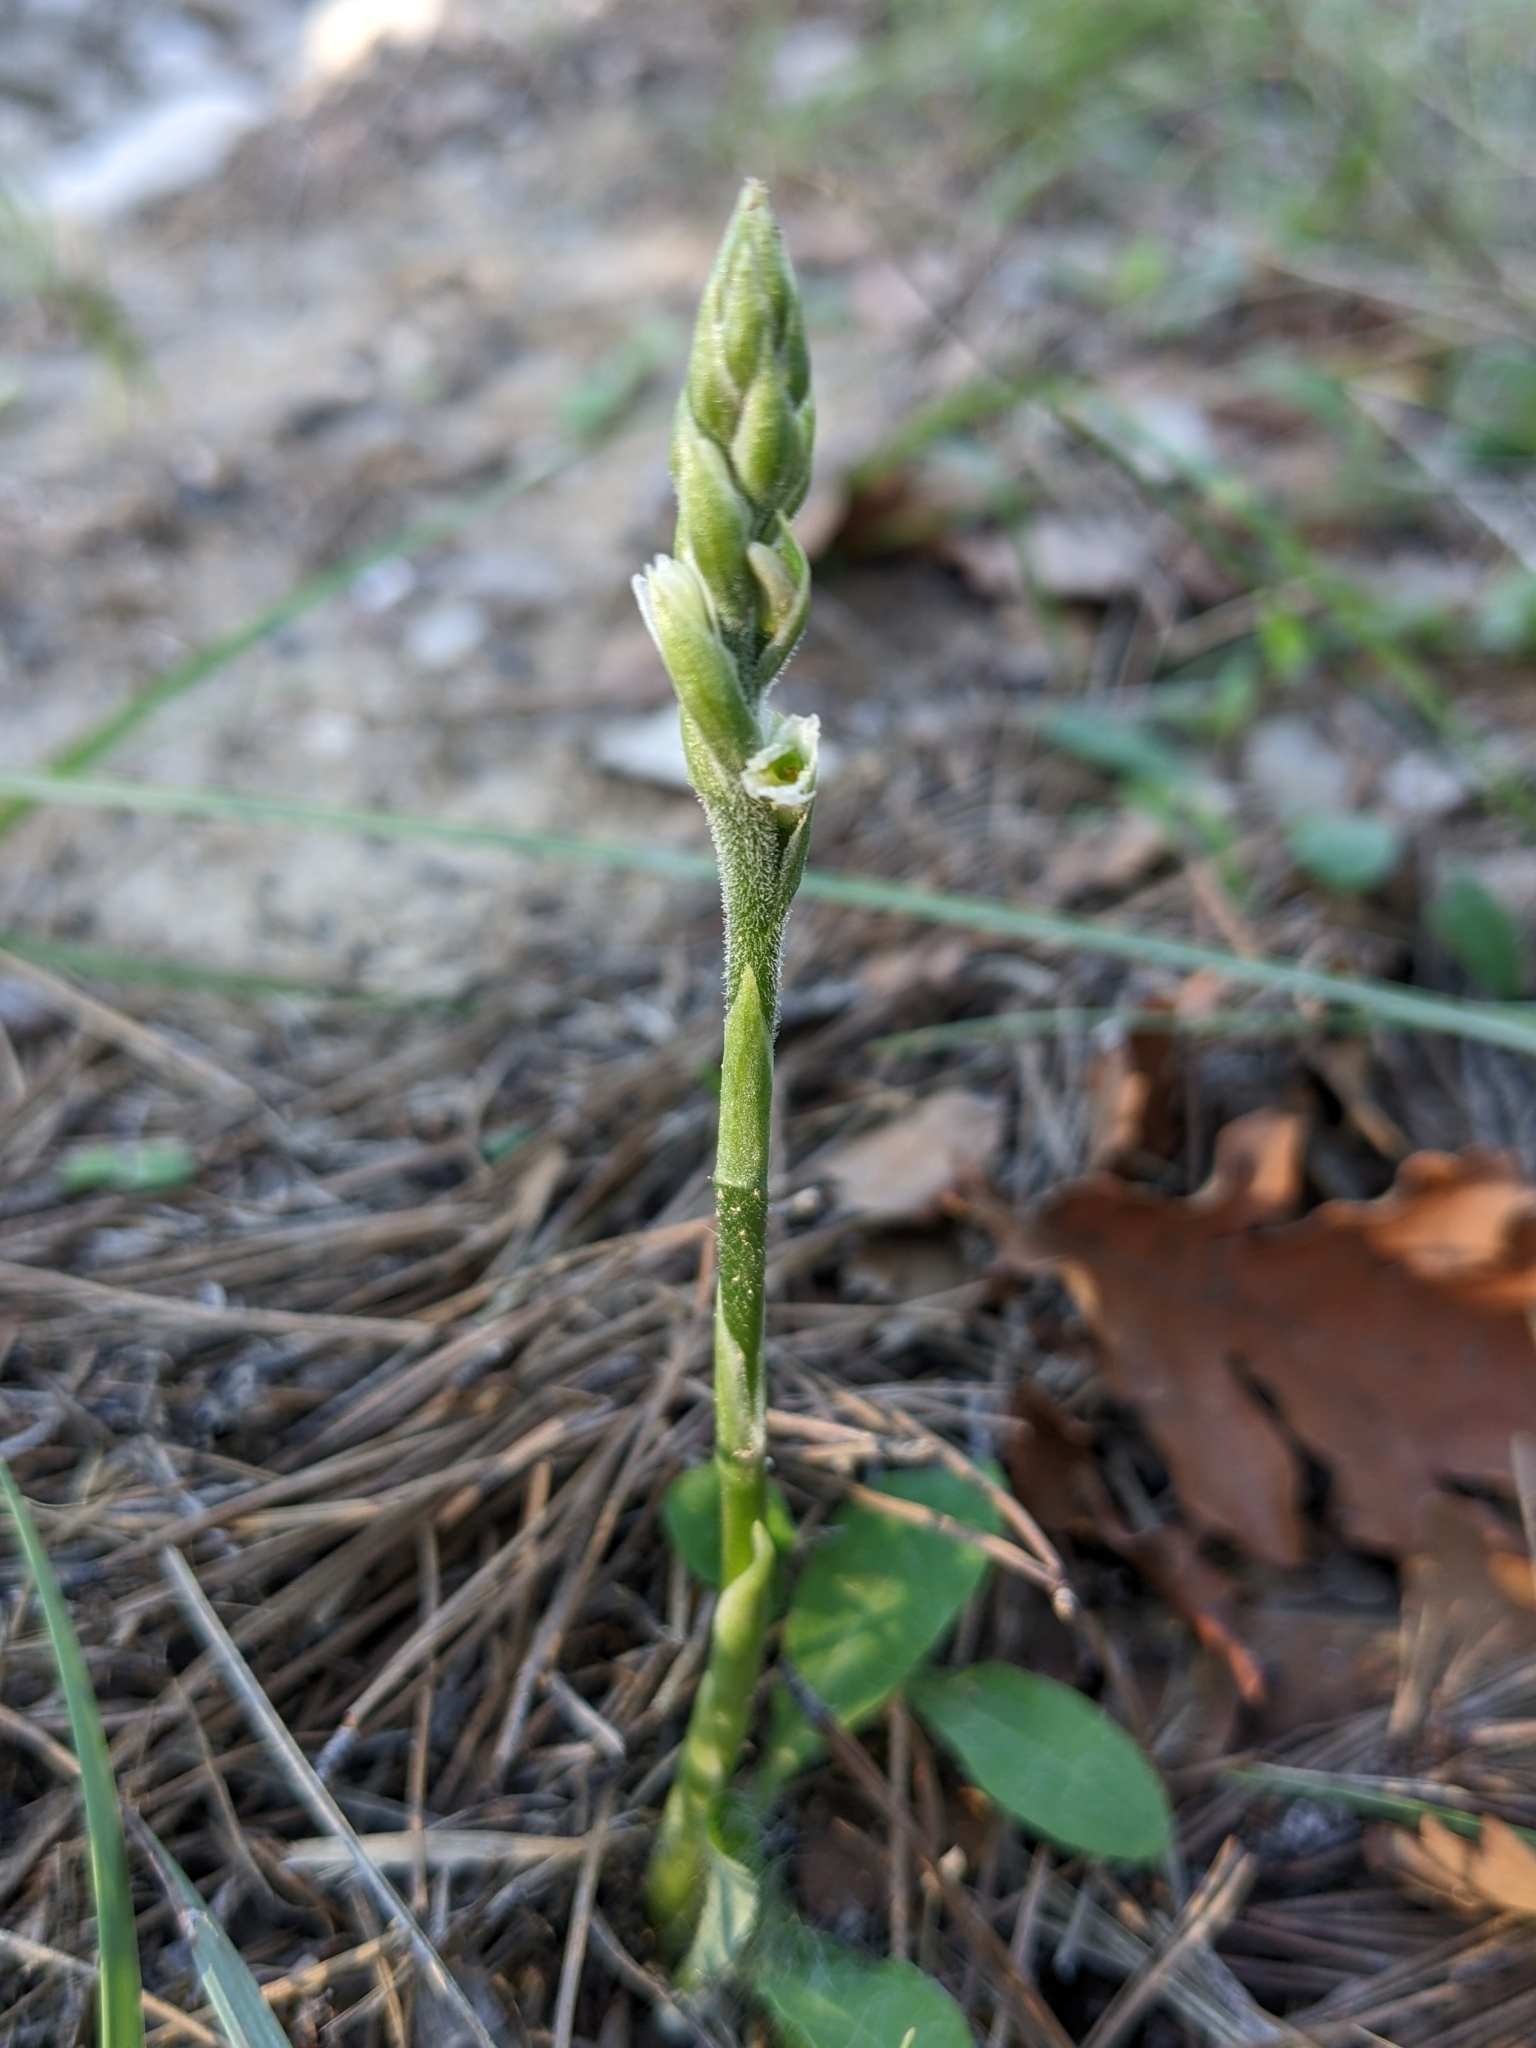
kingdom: Plantae
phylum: Tracheophyta
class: Liliopsida
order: Asparagales
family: Orchidaceae
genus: Spiranthes
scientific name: Spiranthes spiralis
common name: Autumn lady's-tresses
